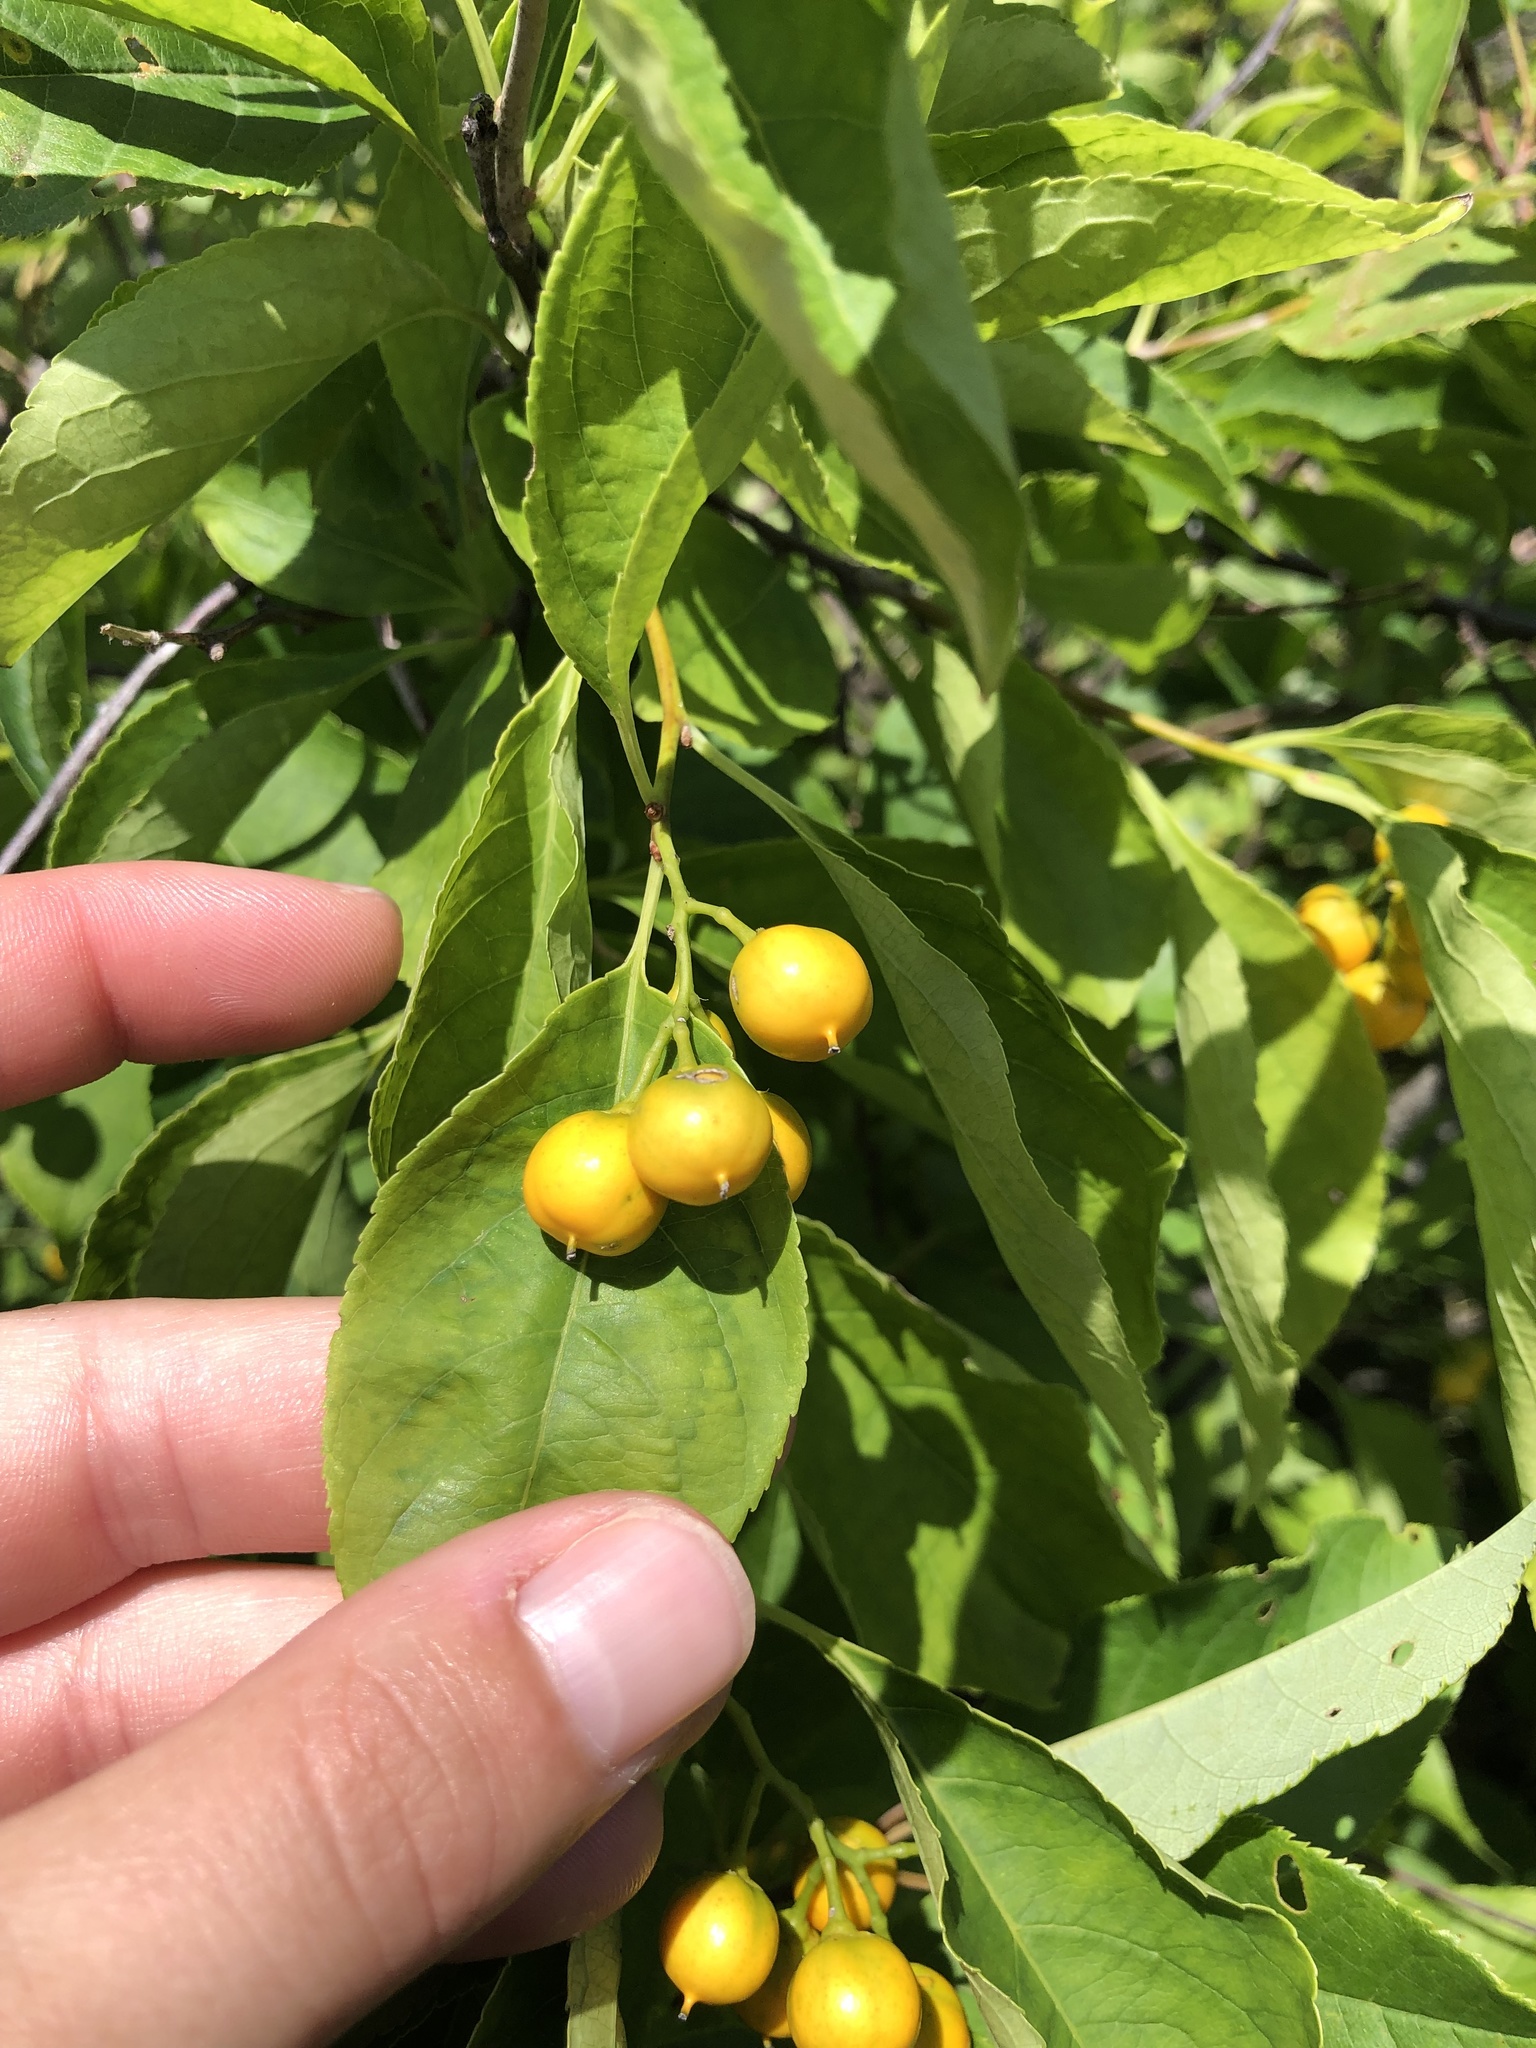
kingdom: Plantae
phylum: Tracheophyta
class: Magnoliopsida
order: Celastrales
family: Celastraceae
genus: Celastrus
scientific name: Celastrus scandens
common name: American bittersweet
